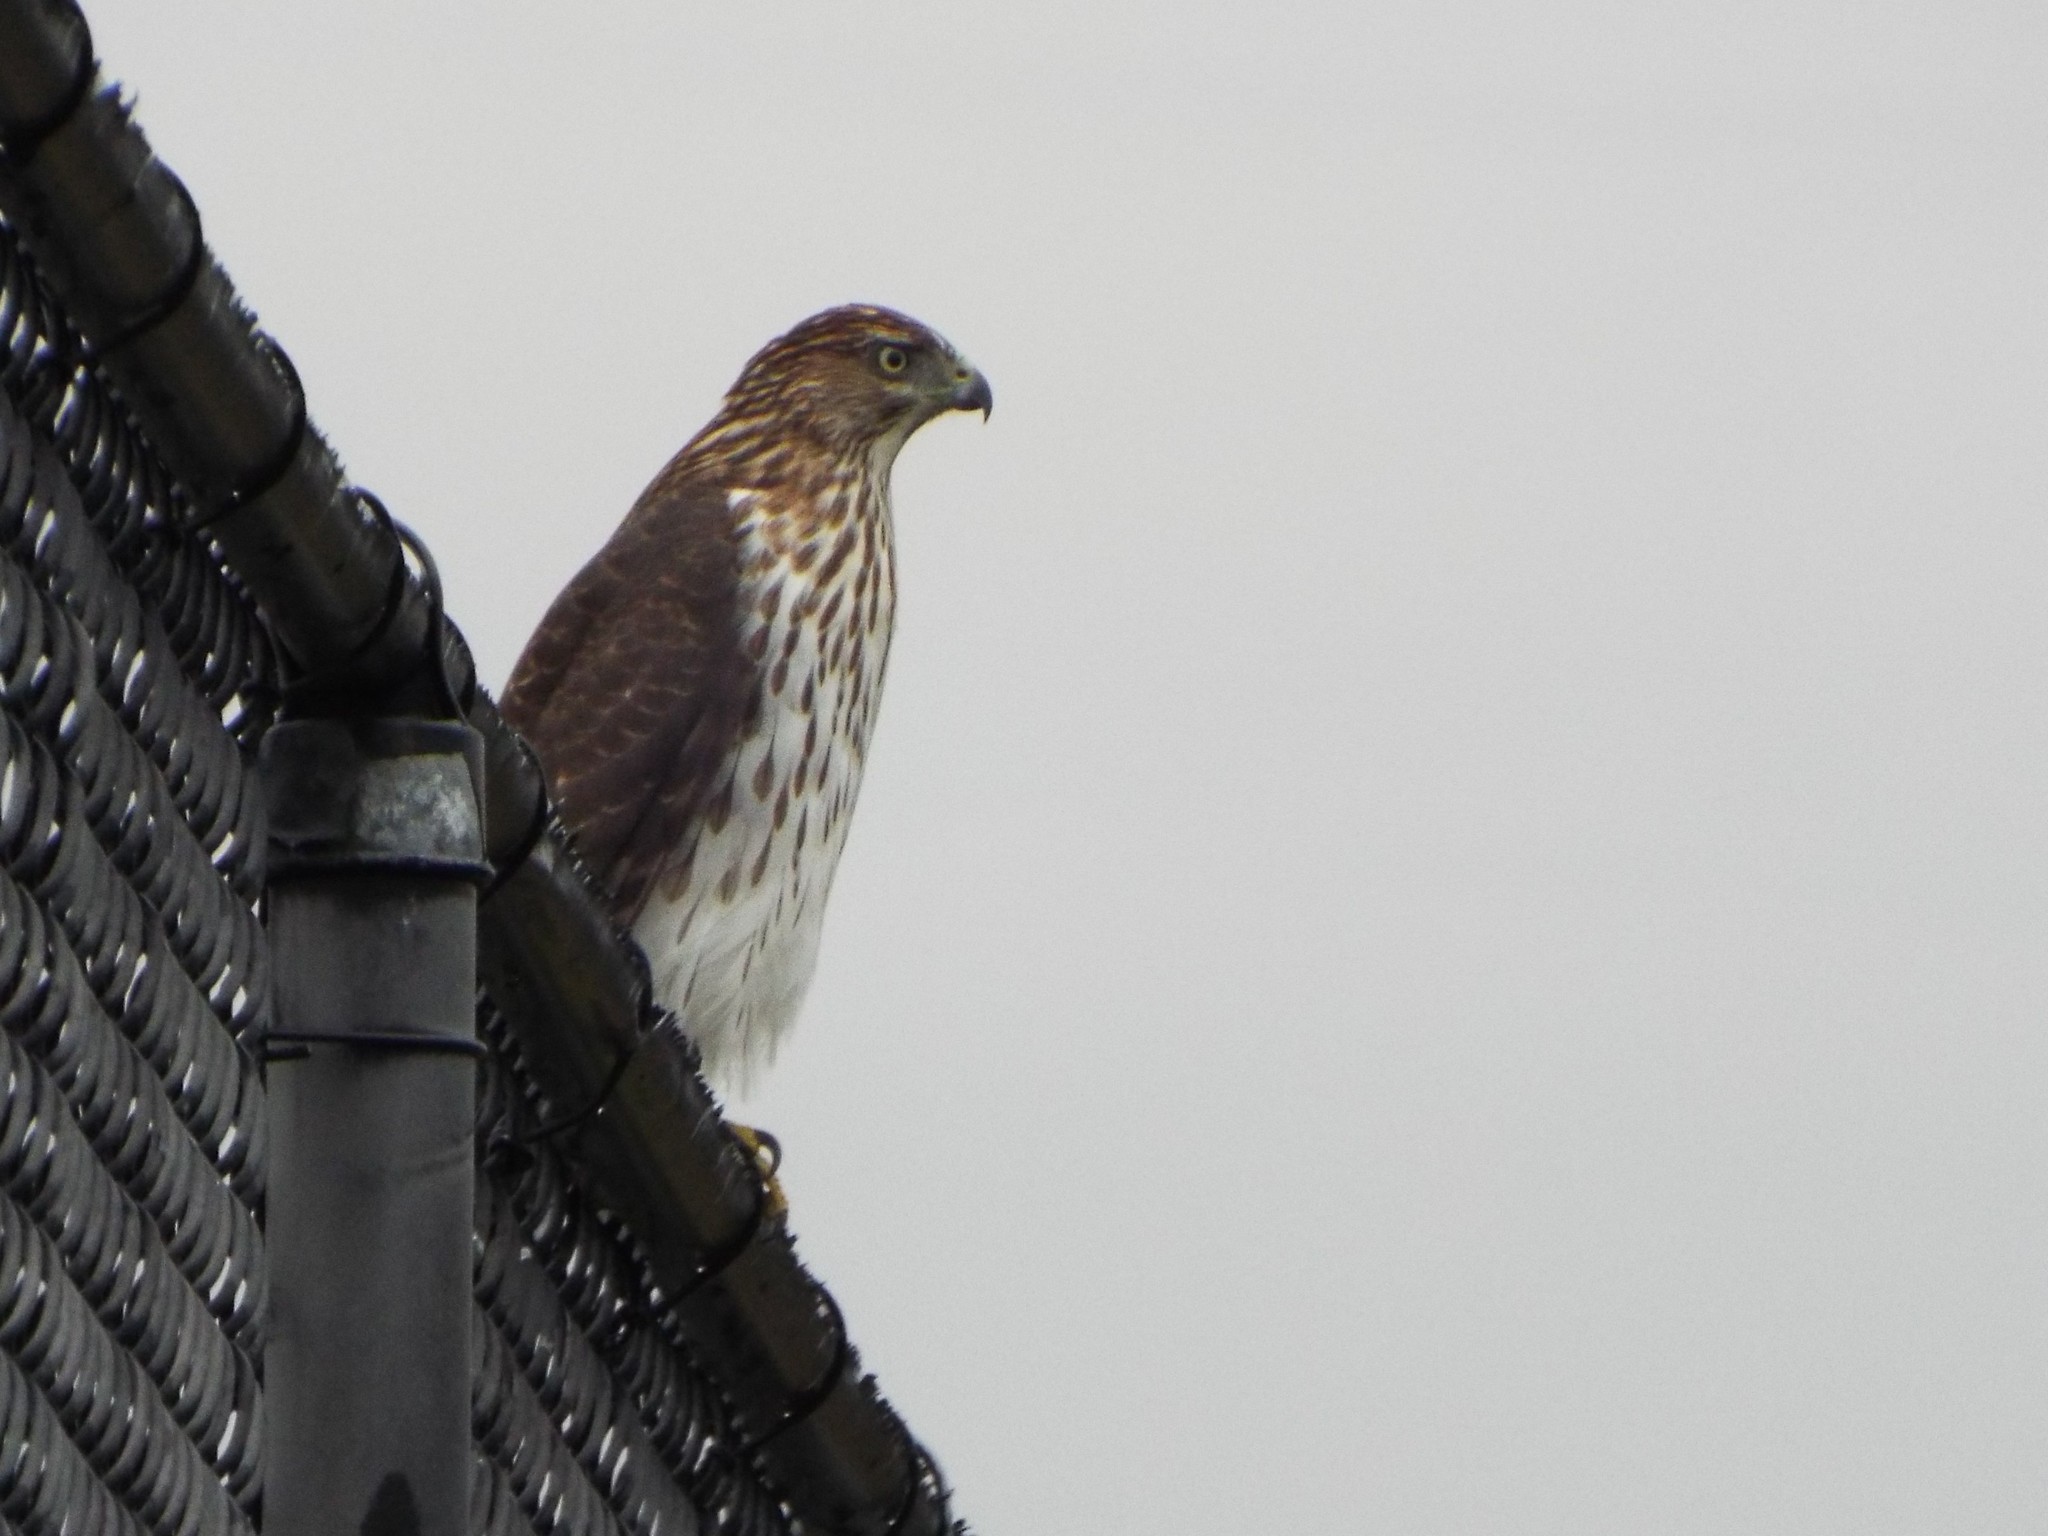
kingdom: Animalia
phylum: Chordata
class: Aves
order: Accipitriformes
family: Accipitridae
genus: Accipiter
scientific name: Accipiter cooperii
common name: Cooper's hawk
